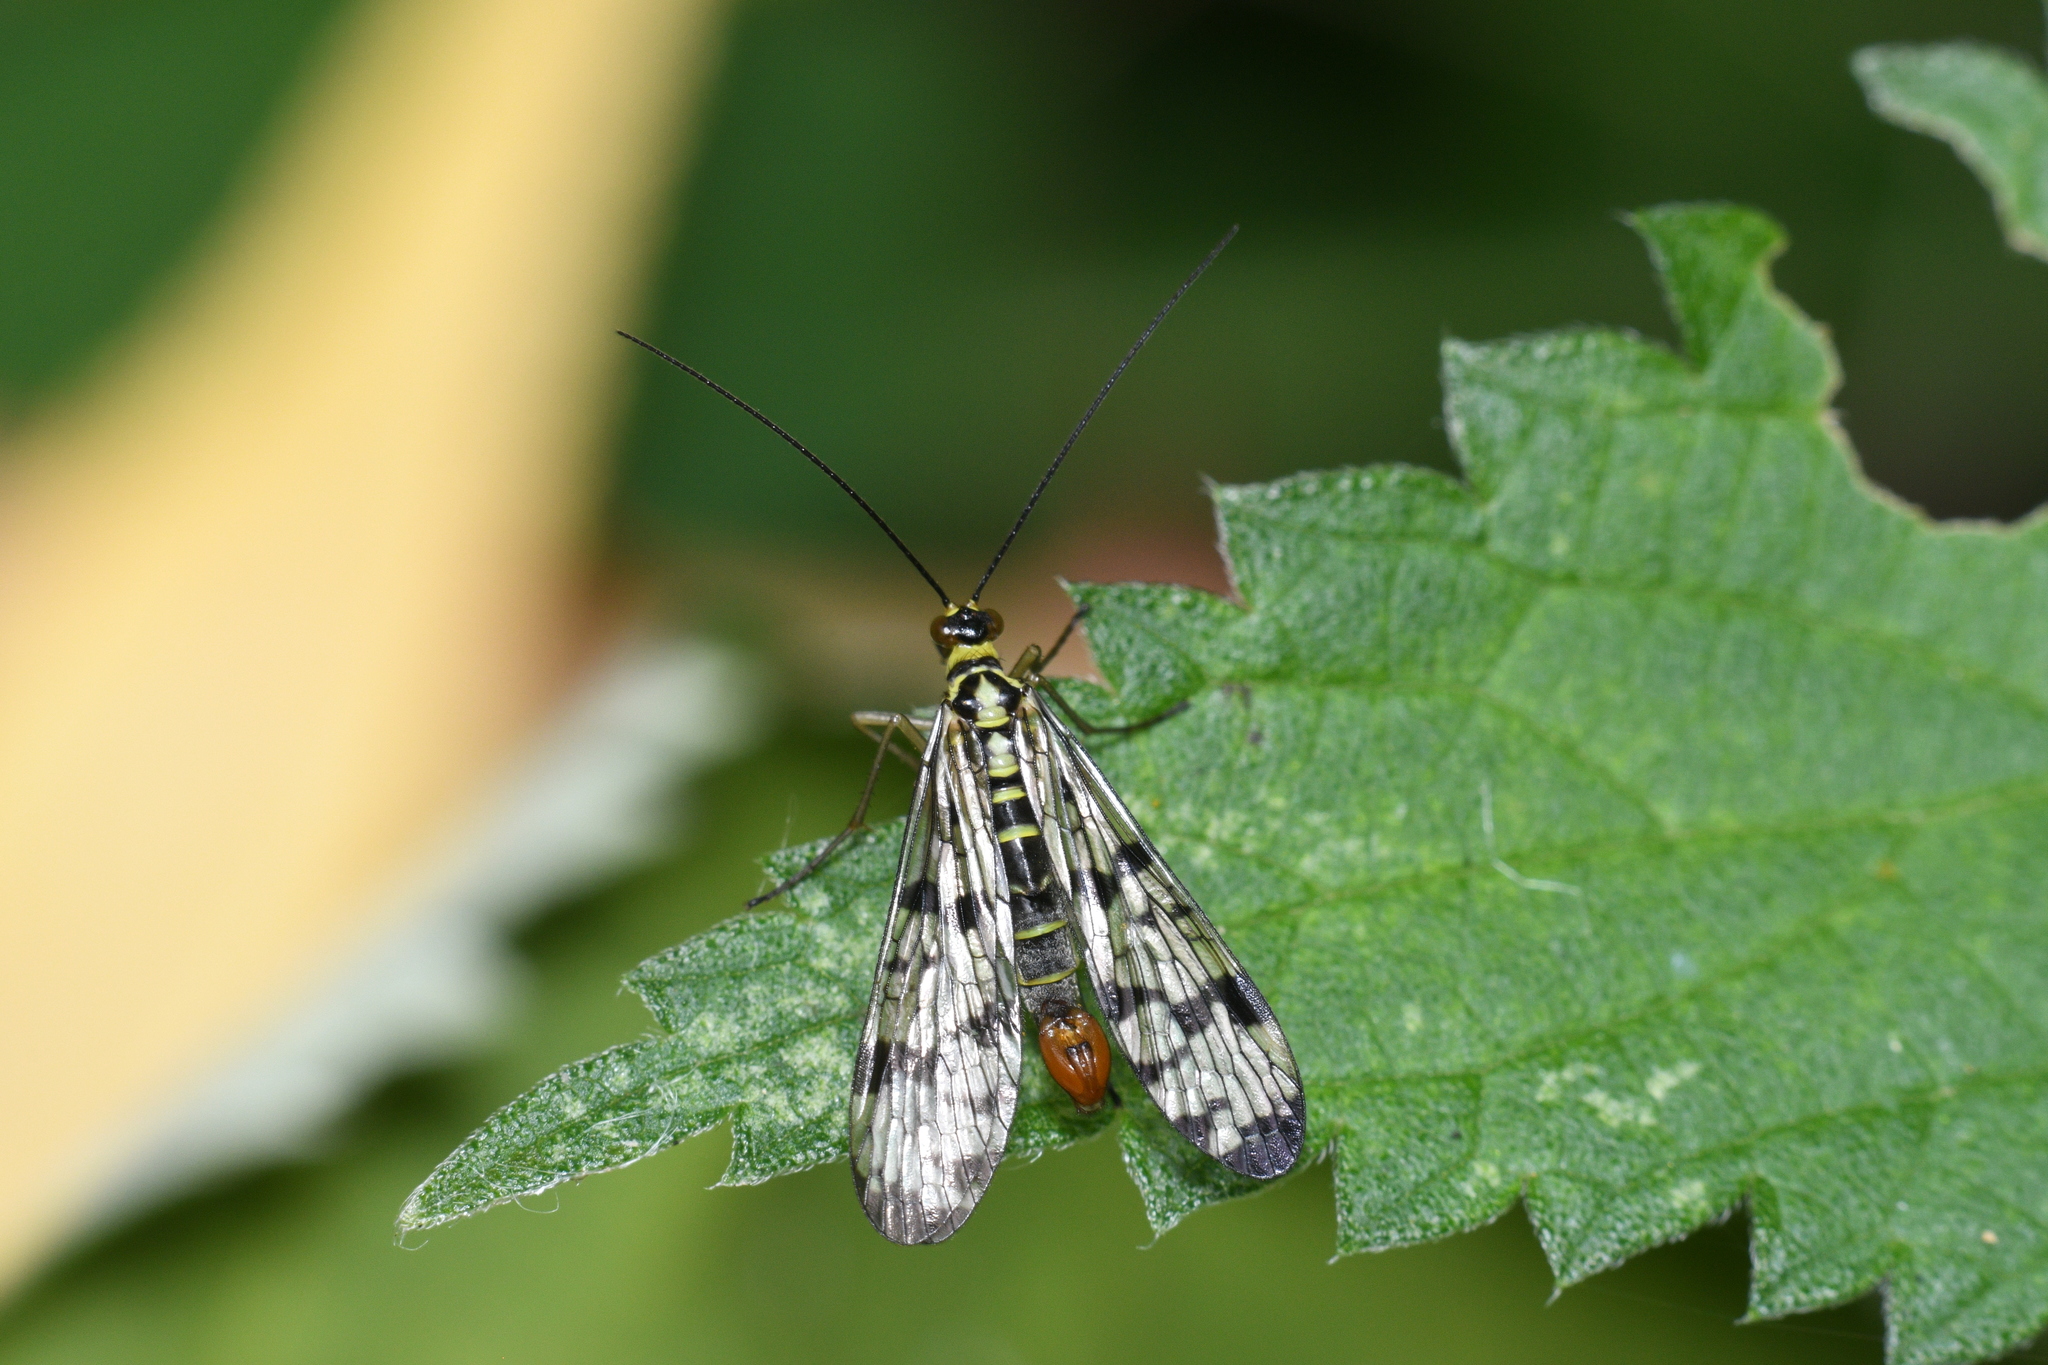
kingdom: Animalia
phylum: Arthropoda
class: Insecta
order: Mecoptera
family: Panorpidae
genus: Panorpa
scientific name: Panorpa germanica
